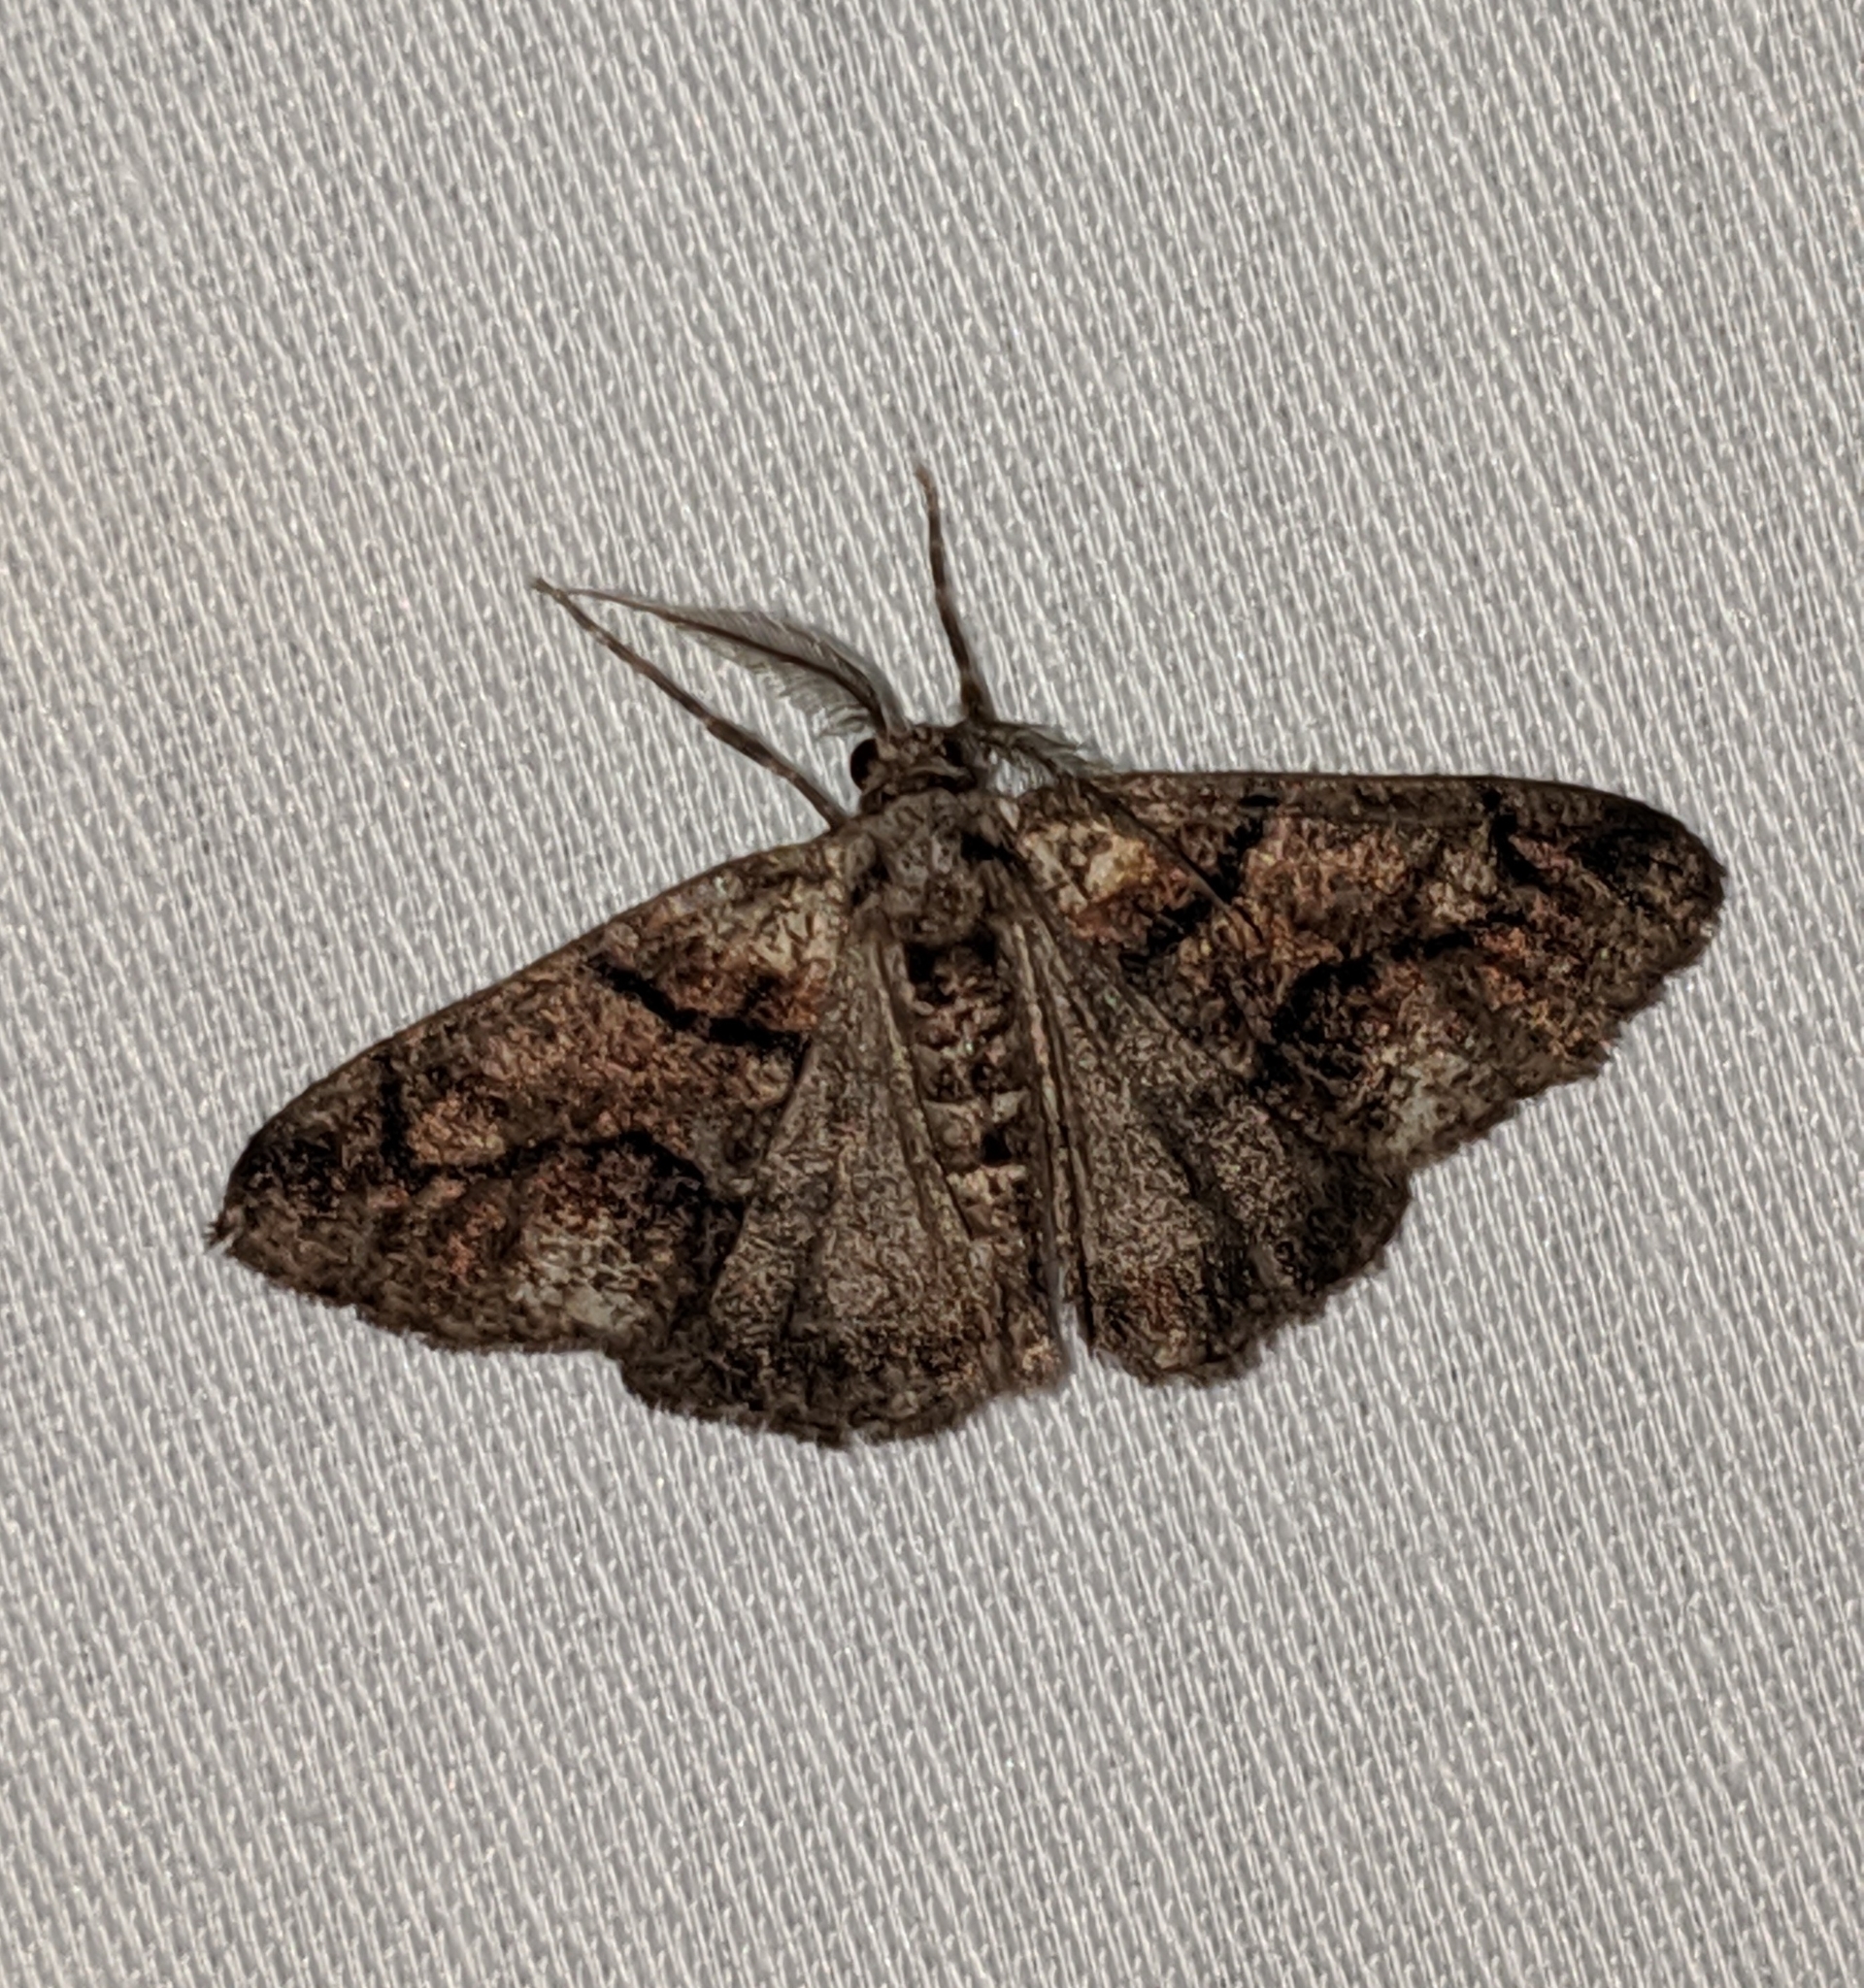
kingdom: Animalia
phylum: Arthropoda
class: Insecta
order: Lepidoptera
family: Geometridae
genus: Gabriola
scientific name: Gabriola dyari
